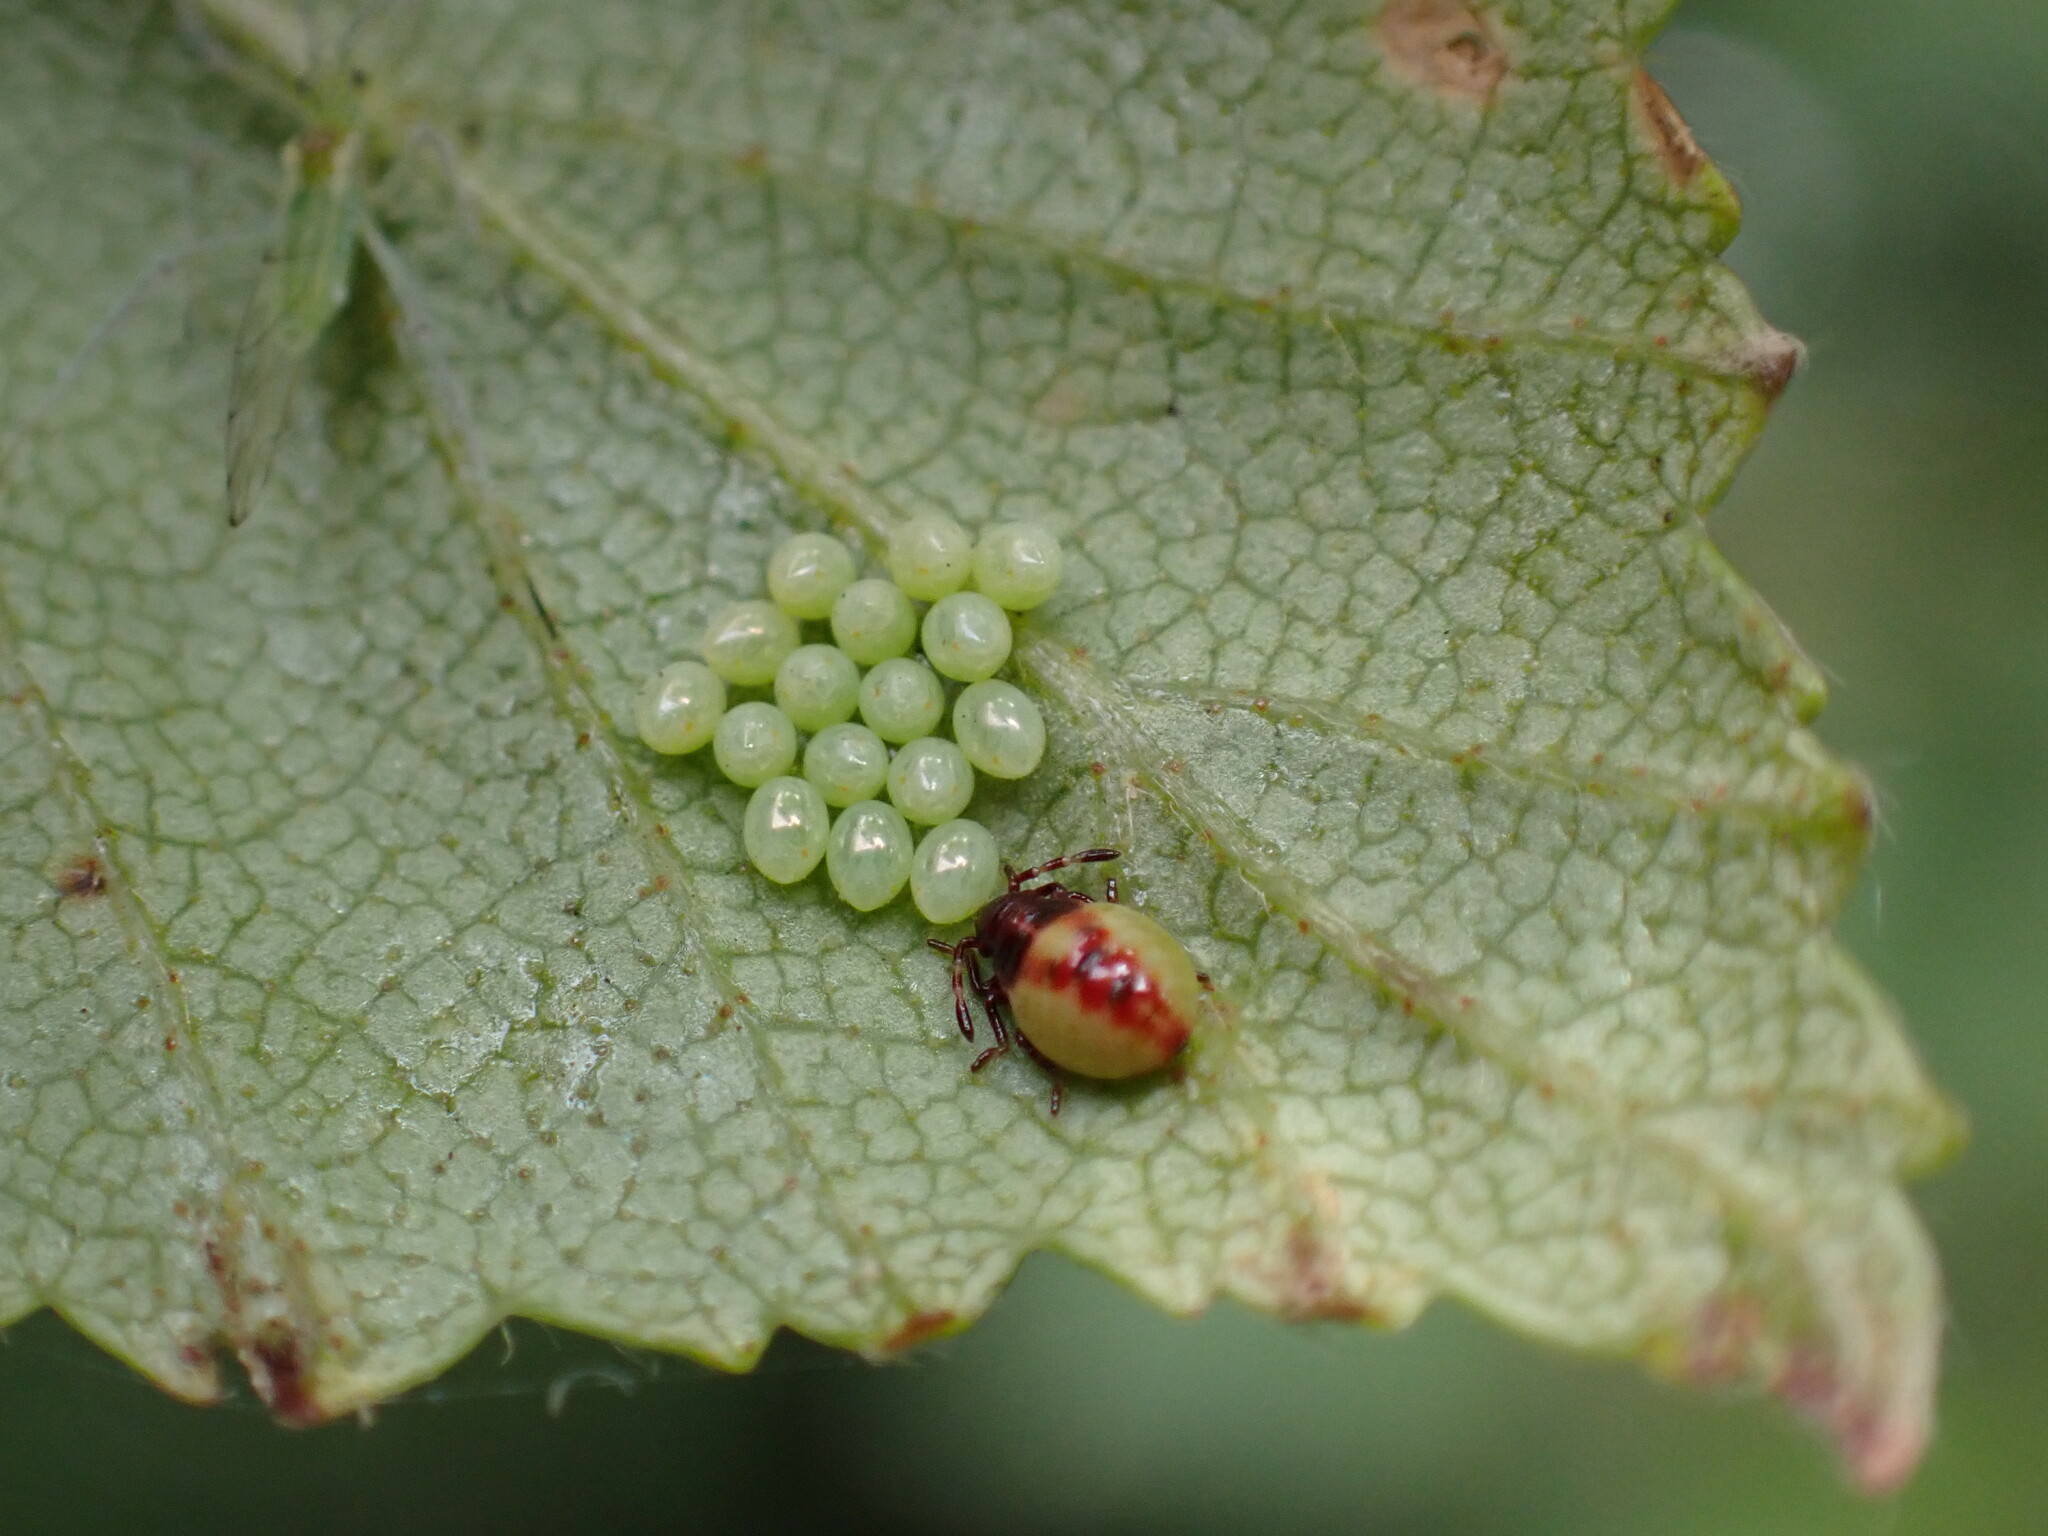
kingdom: Animalia
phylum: Arthropoda
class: Insecta
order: Hemiptera
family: Acanthosomatidae
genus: Elasmostethus
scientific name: Elasmostethus interstinctus
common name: Birch shieldbug
